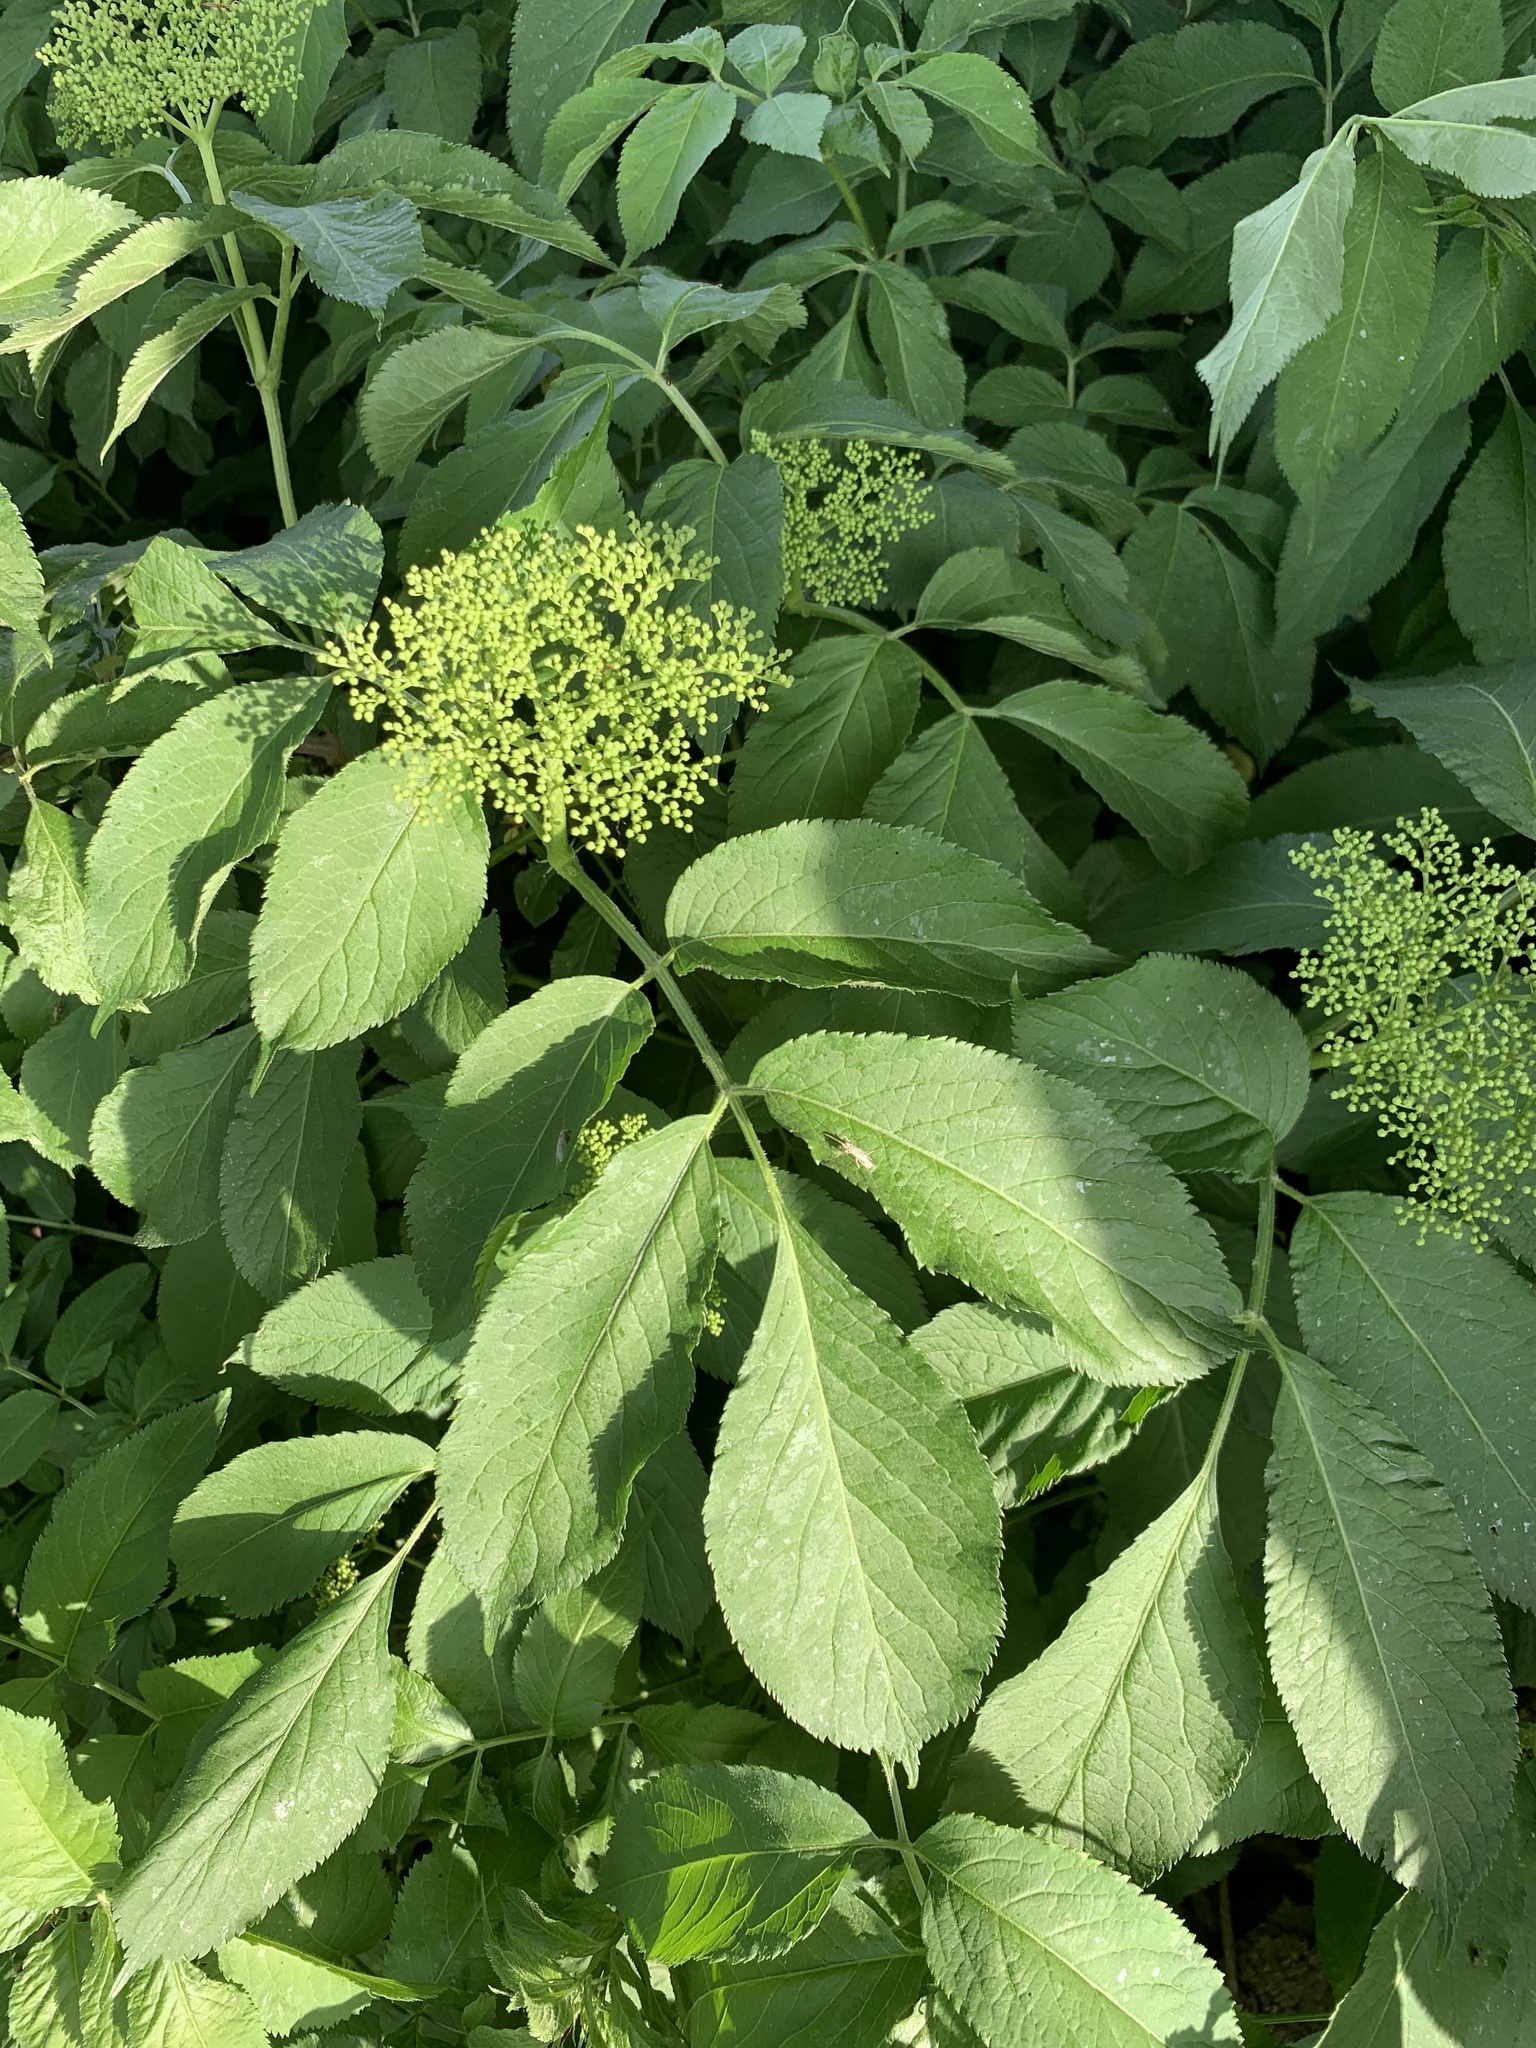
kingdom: Plantae
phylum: Tracheophyta
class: Magnoliopsida
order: Dipsacales
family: Viburnaceae
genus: Sambucus
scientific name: Sambucus nigra
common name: Elder
